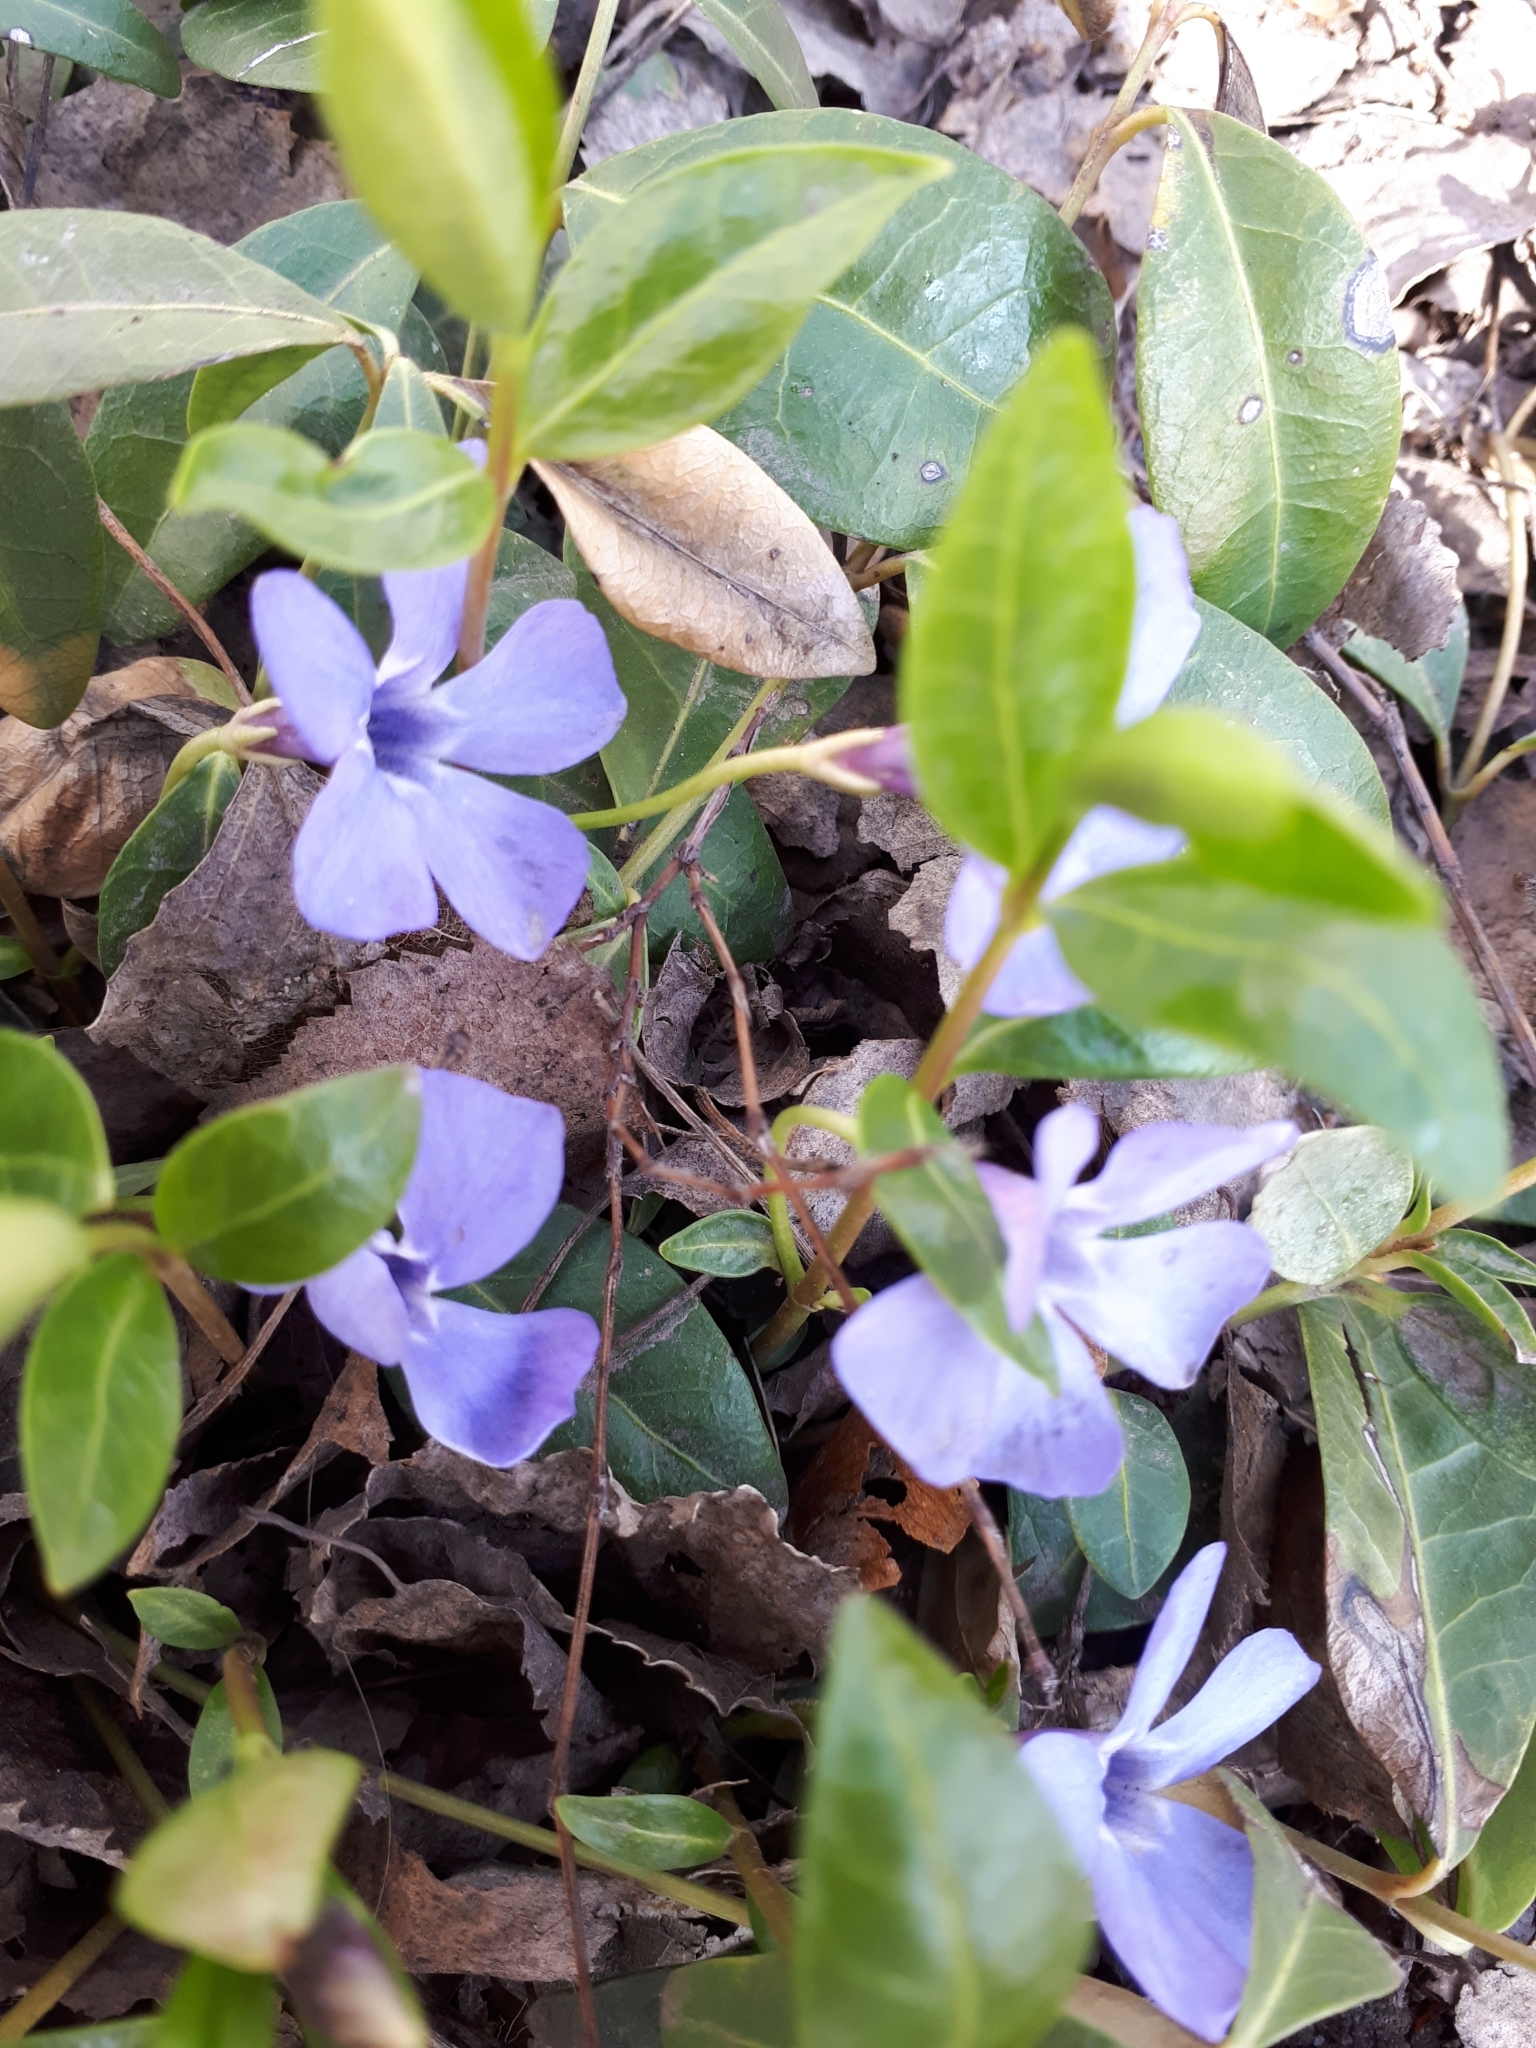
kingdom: Plantae
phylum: Tracheophyta
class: Magnoliopsida
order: Gentianales
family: Apocynaceae
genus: Vinca
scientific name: Vinca minor
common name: Lesser periwinkle
